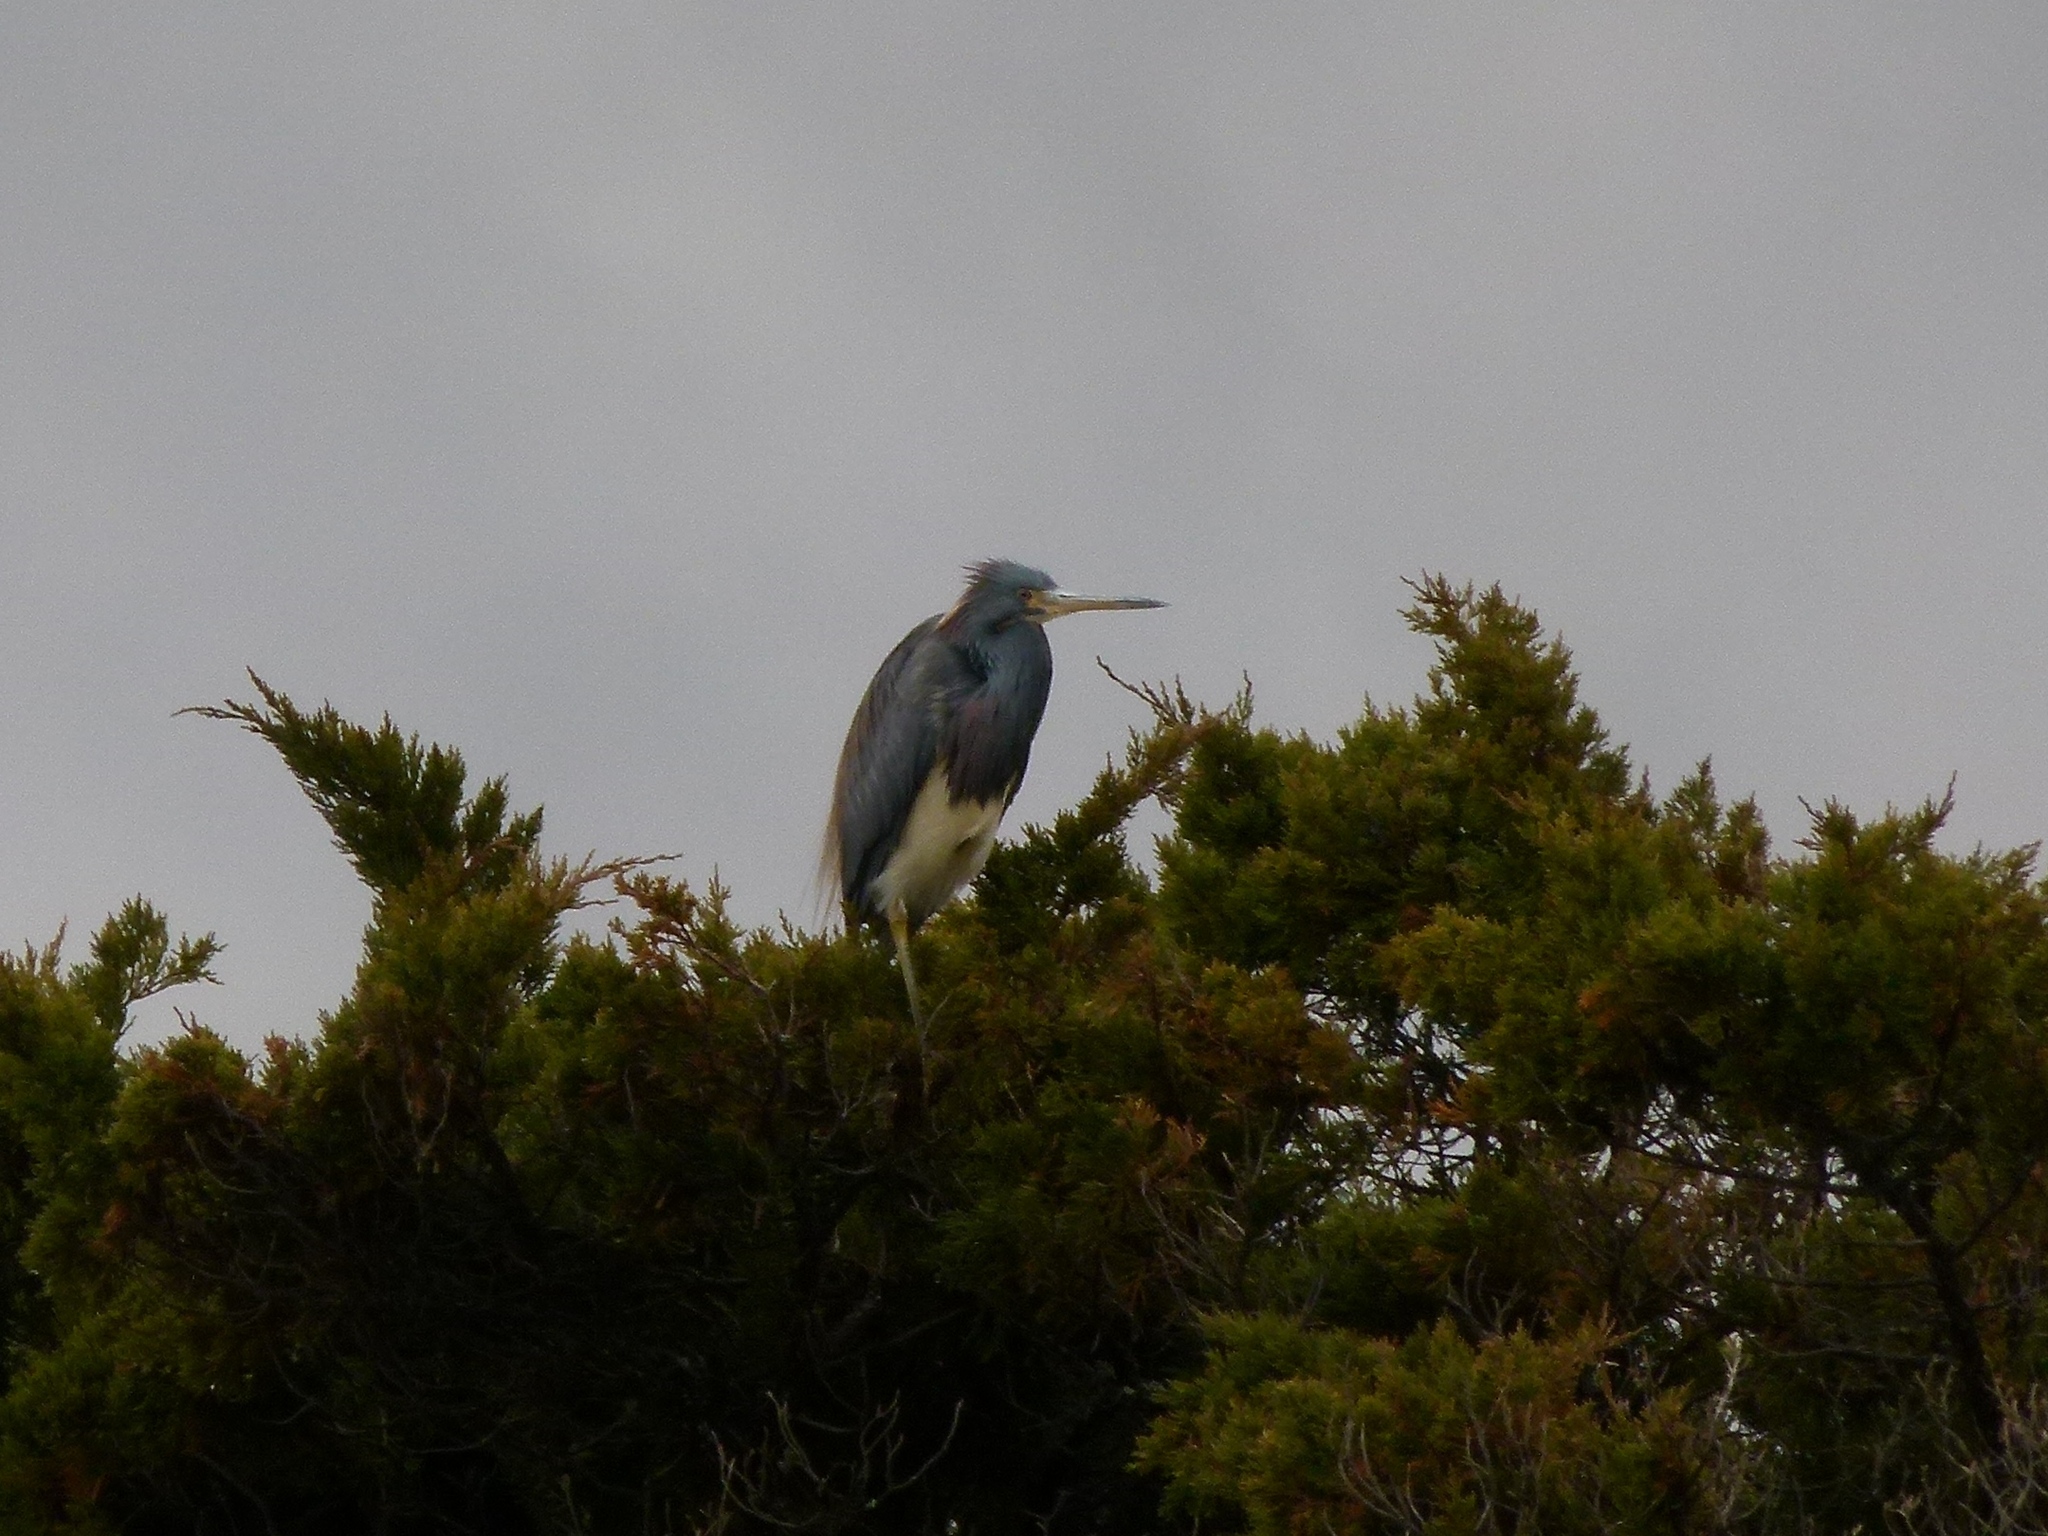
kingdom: Animalia
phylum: Chordata
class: Aves
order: Pelecaniformes
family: Ardeidae
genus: Egretta
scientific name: Egretta tricolor
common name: Tricolored heron
